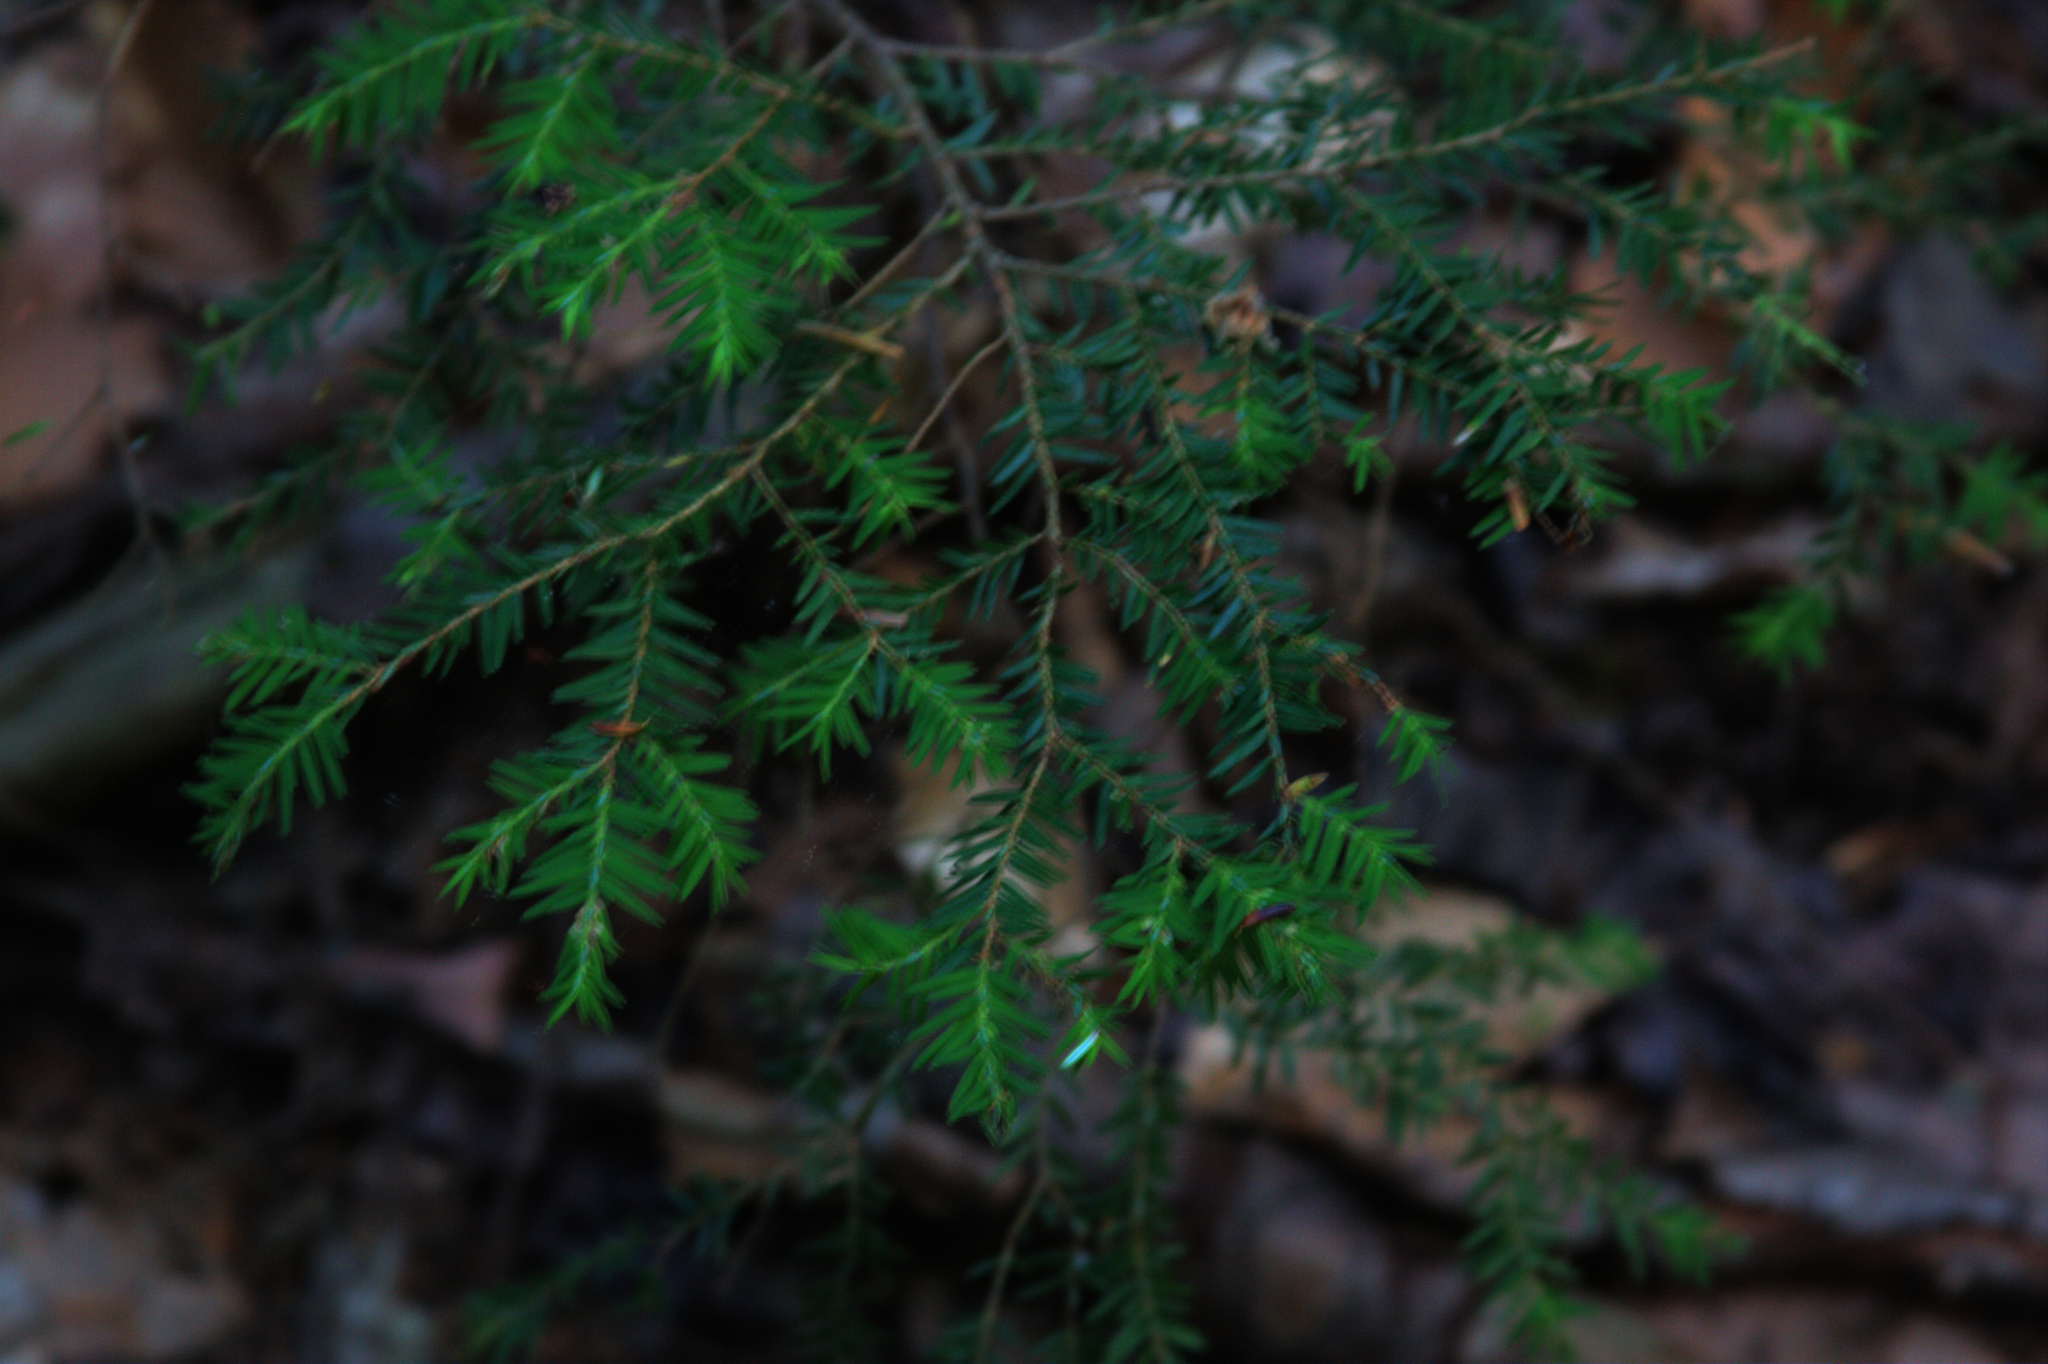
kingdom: Plantae
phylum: Tracheophyta
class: Pinopsida
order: Pinales
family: Pinaceae
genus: Tsuga
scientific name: Tsuga canadensis
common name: Eastern hemlock
